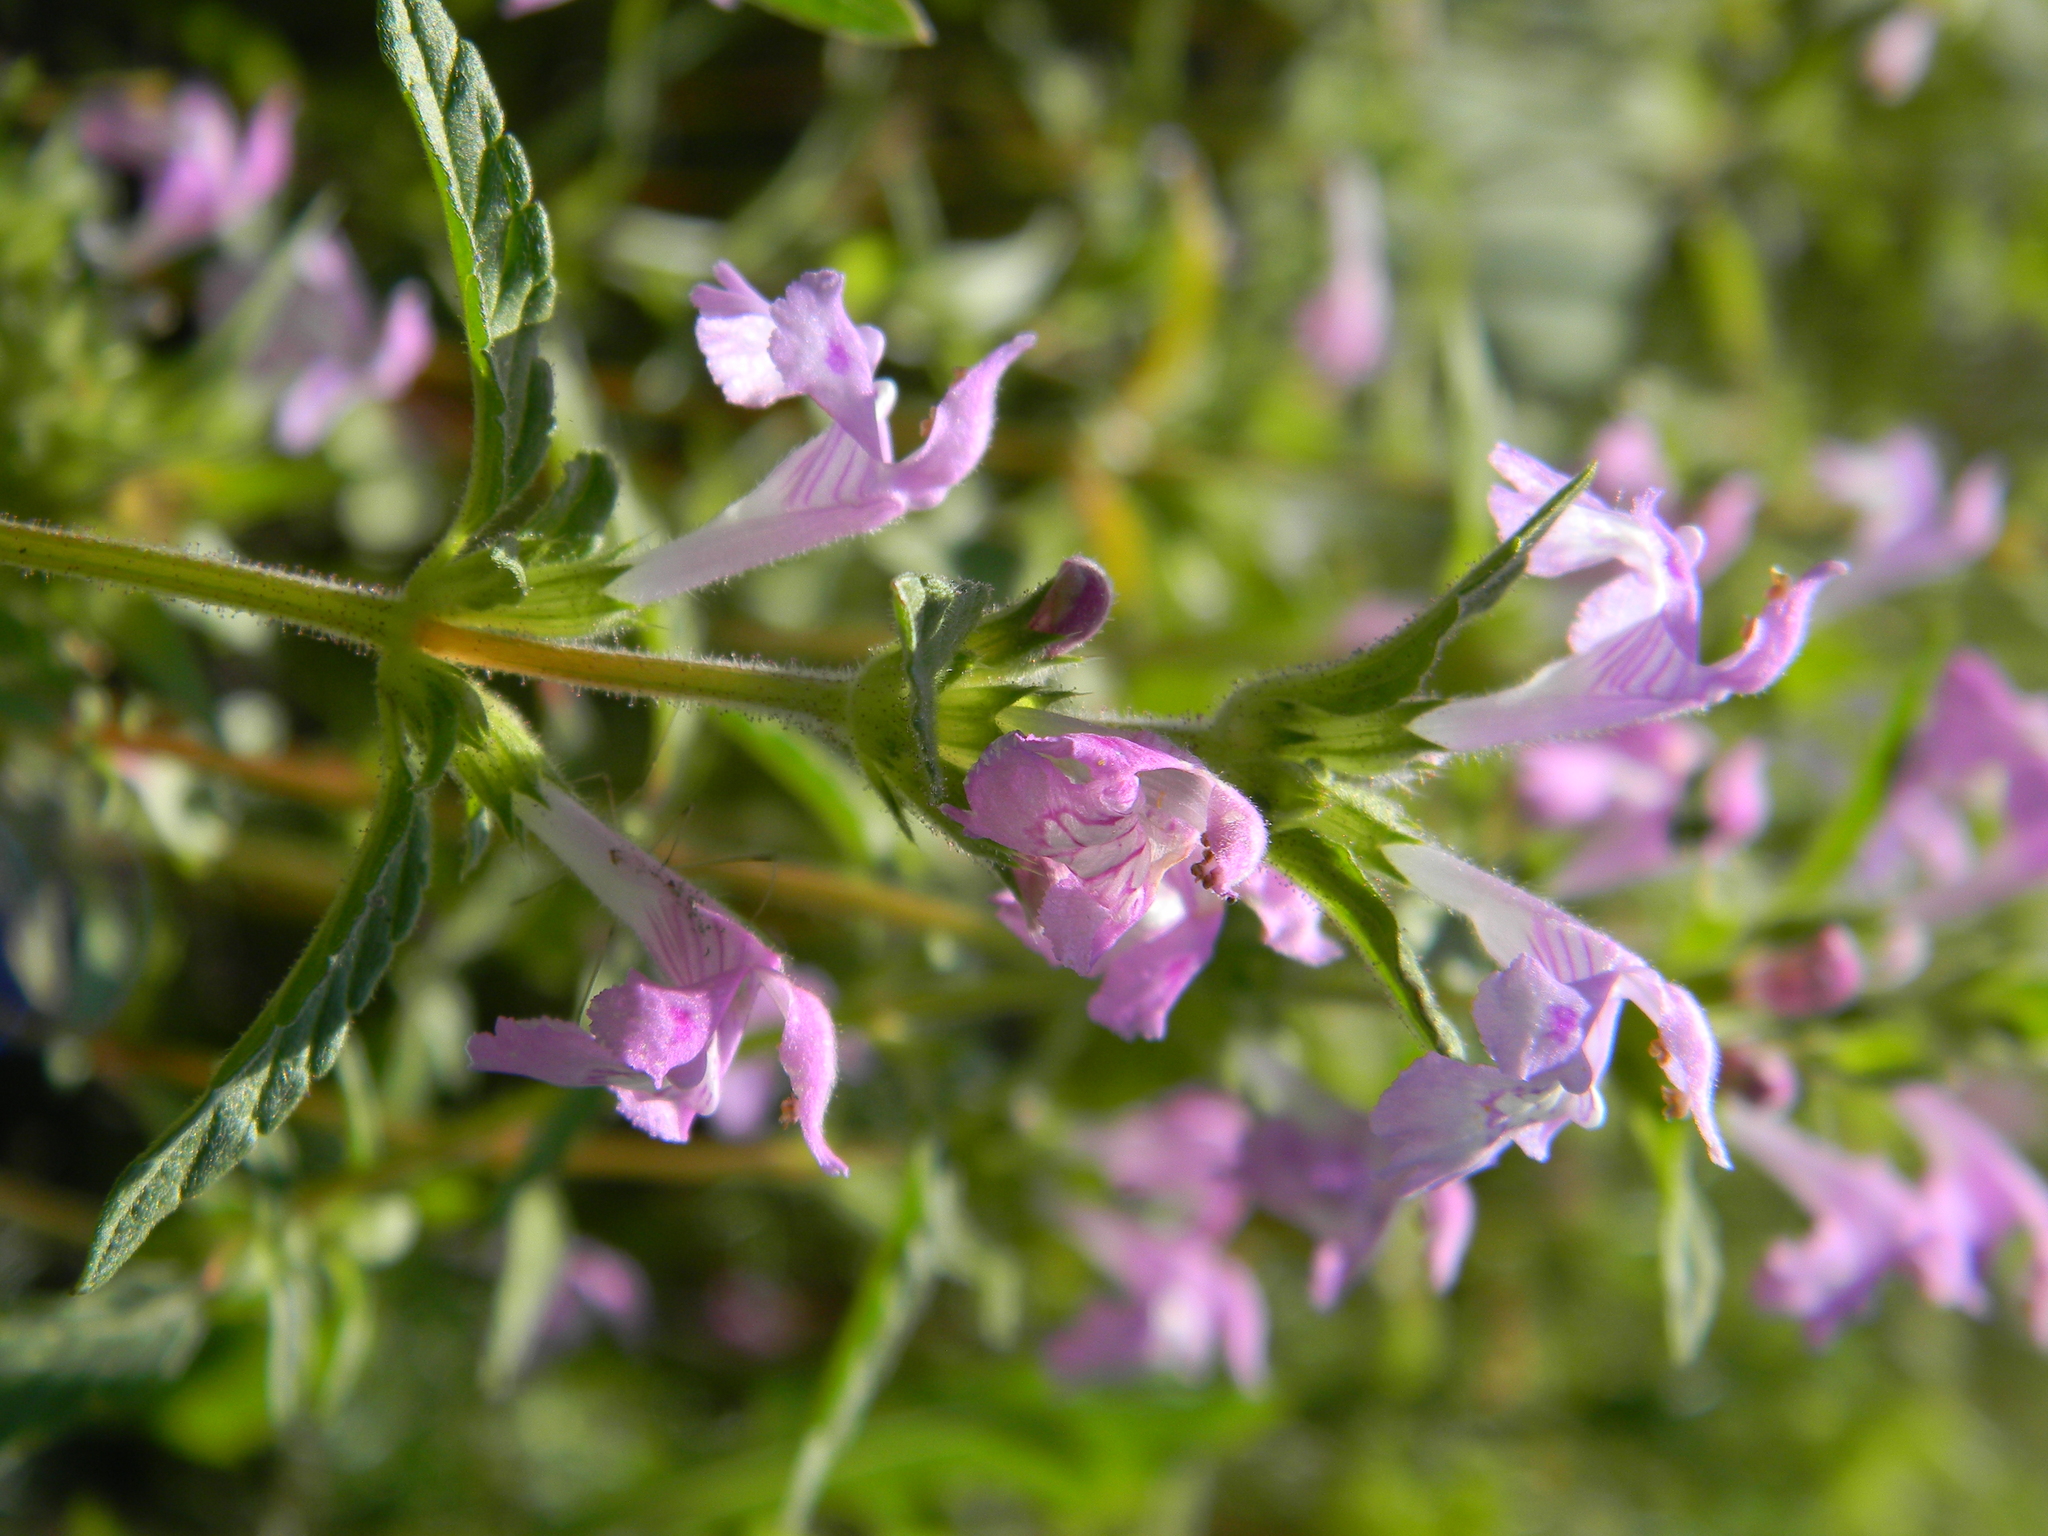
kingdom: Plantae
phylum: Tracheophyta
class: Magnoliopsida
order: Lamiales
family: Lamiaceae
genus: Galeopsis
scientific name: Galeopsis ladanum
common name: Broad-leaved hemp-nettle
